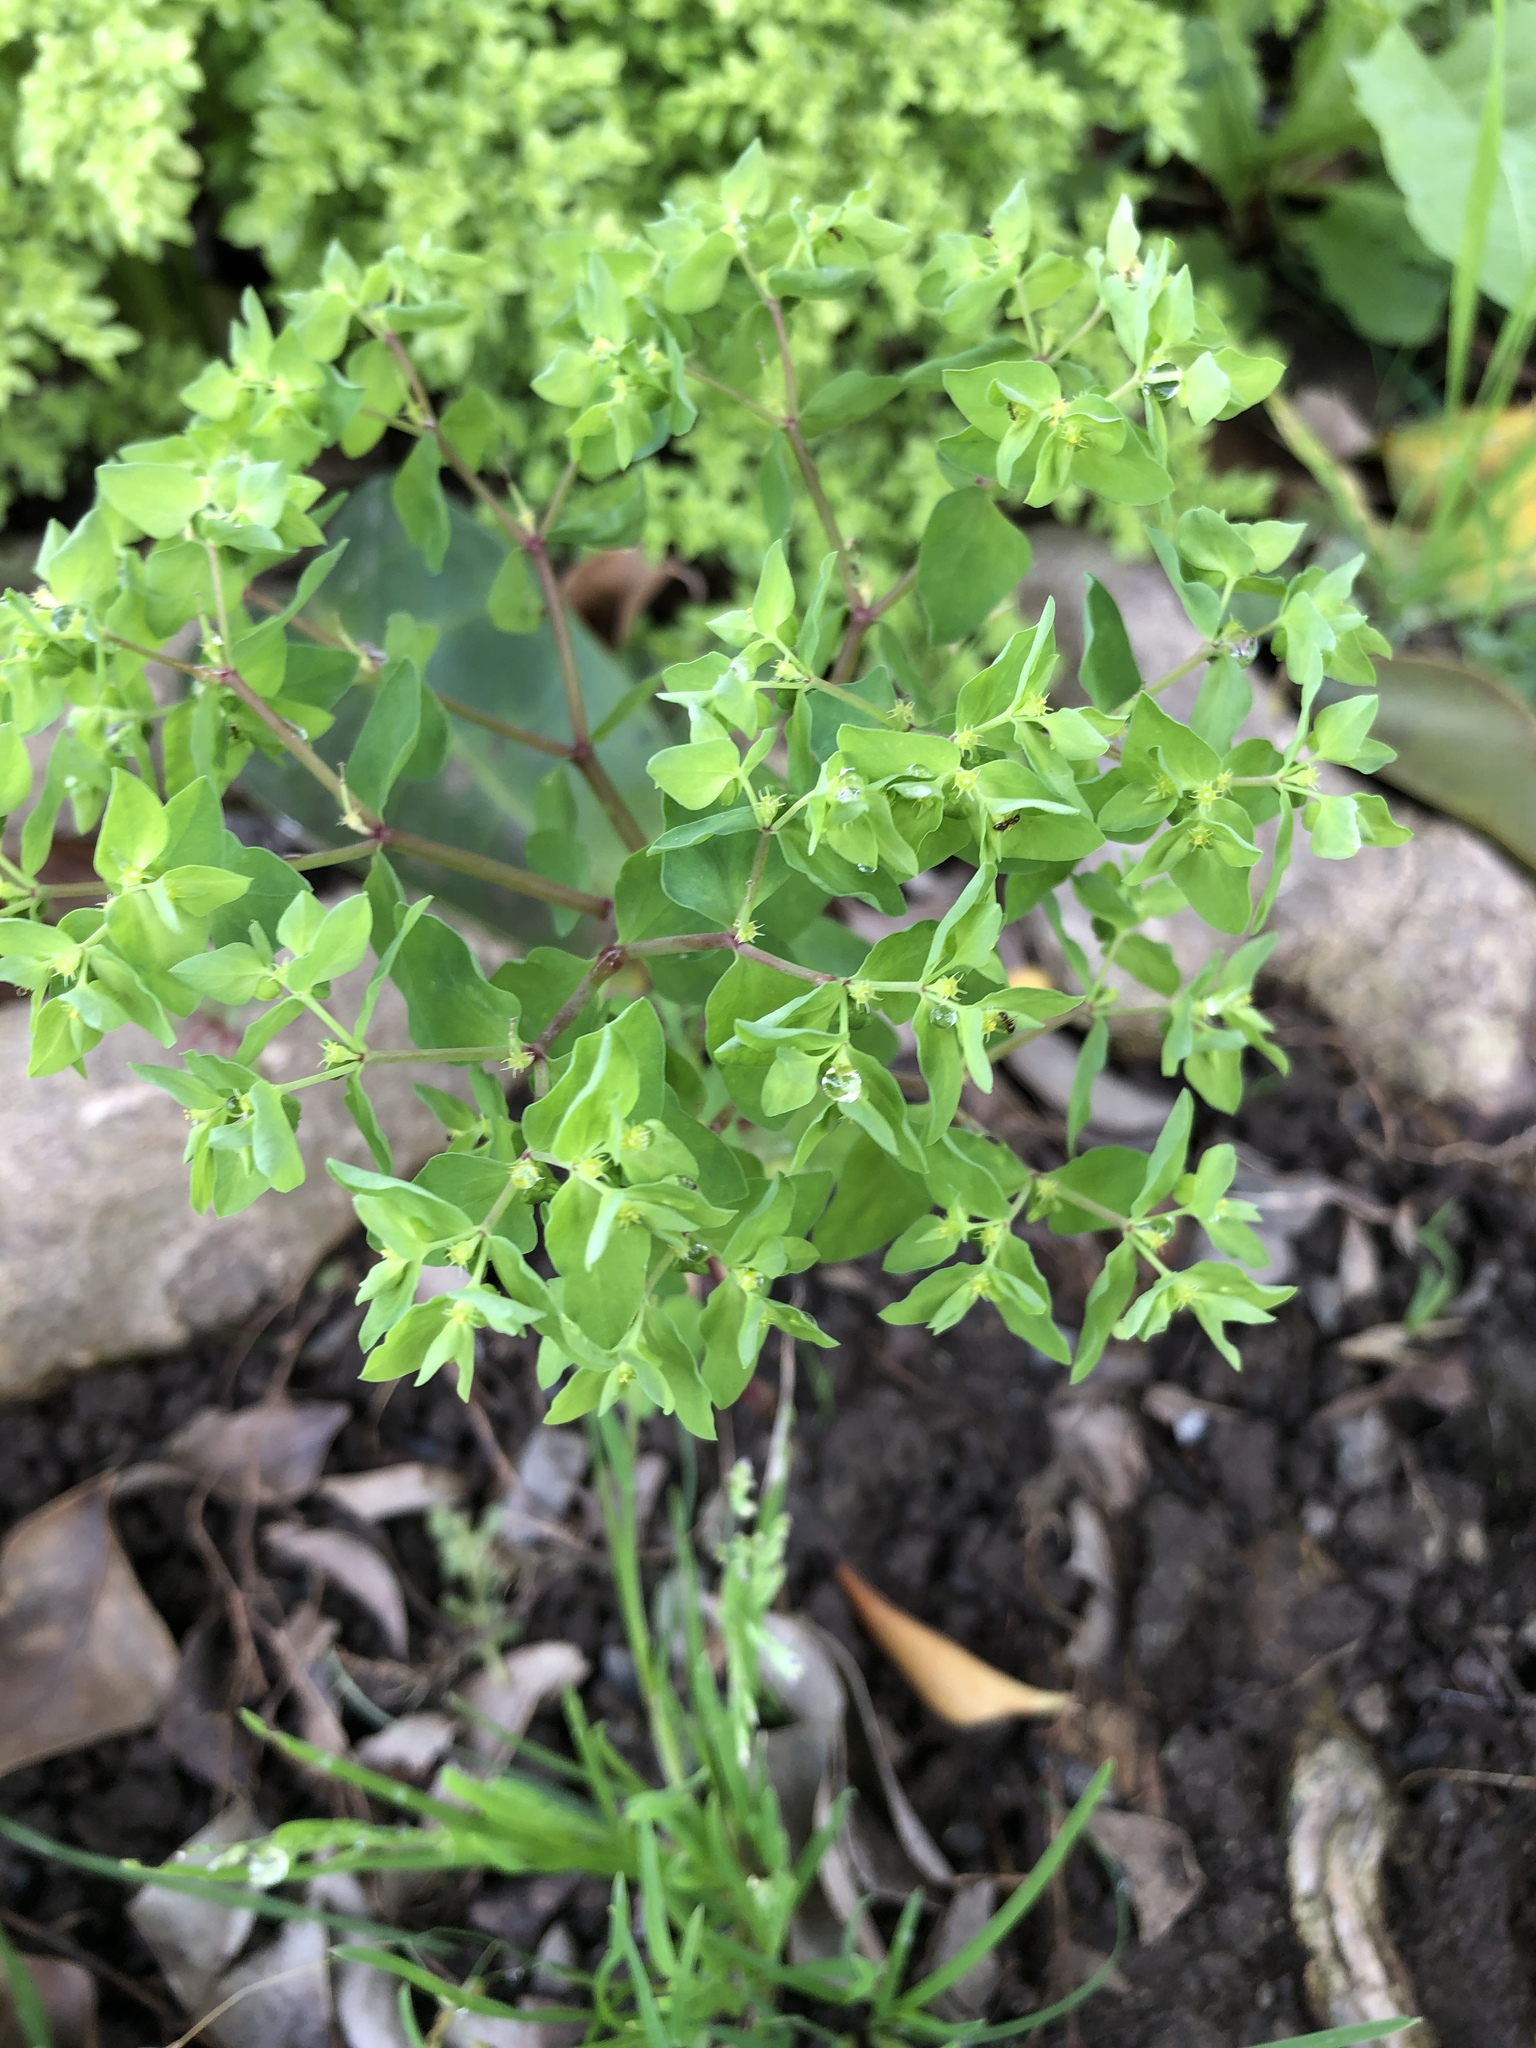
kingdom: Plantae
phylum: Tracheophyta
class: Magnoliopsida
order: Malpighiales
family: Euphorbiaceae
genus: Euphorbia
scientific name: Euphorbia peplus
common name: Petty spurge
